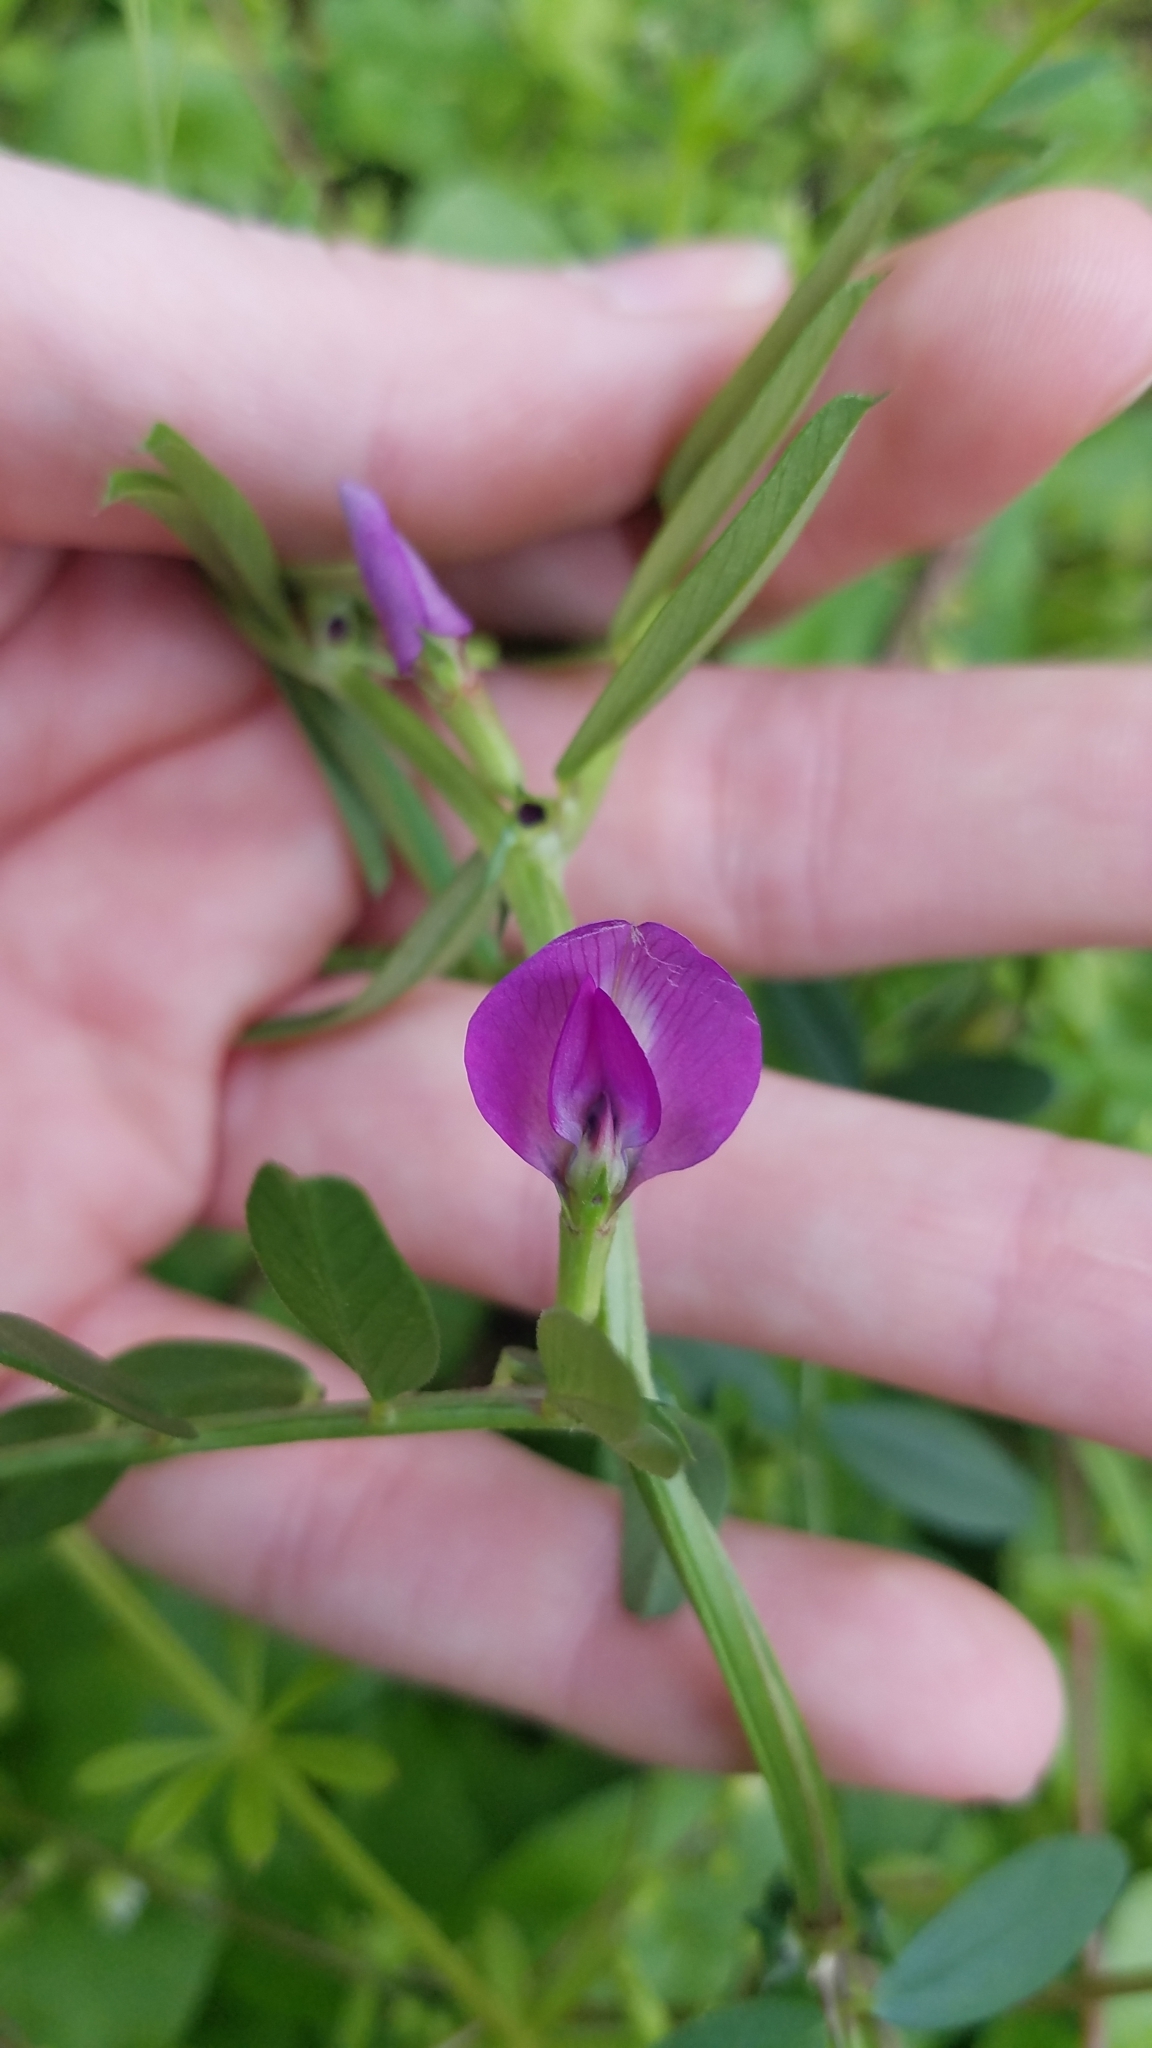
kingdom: Plantae
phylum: Tracheophyta
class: Magnoliopsida
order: Fabales
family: Fabaceae
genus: Vicia
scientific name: Vicia sativa
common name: Garden vetch
